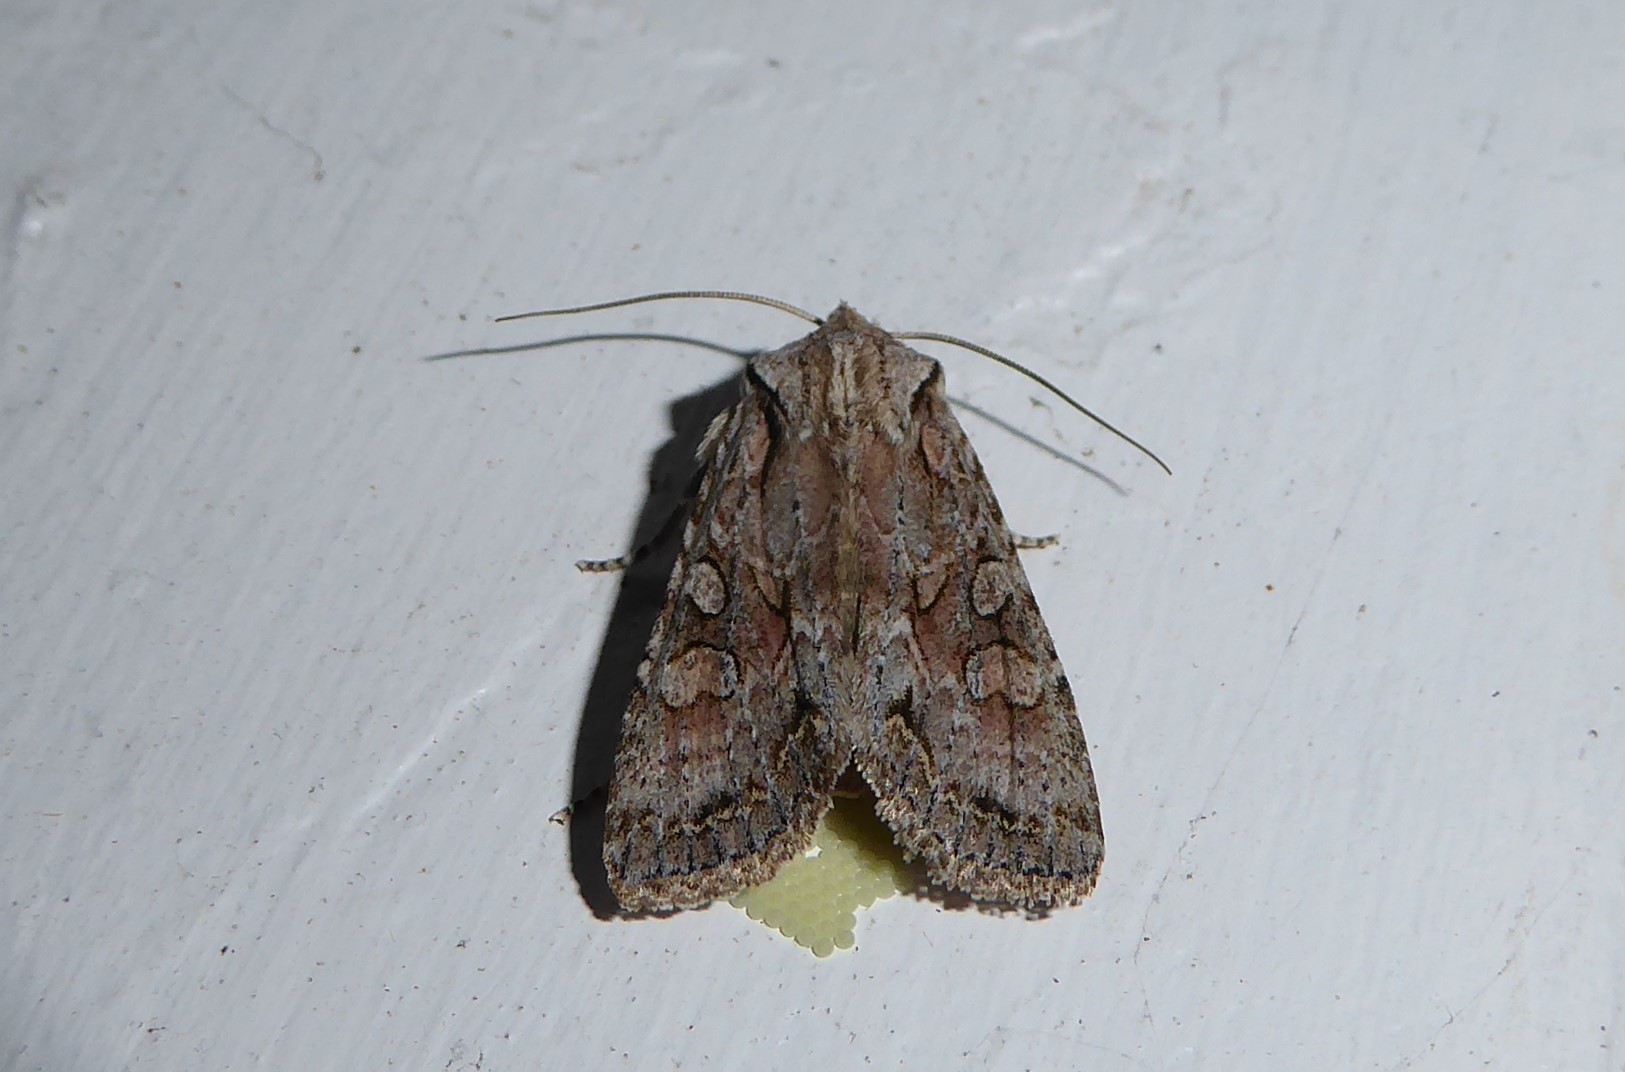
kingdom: Animalia
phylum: Arthropoda
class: Insecta
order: Lepidoptera
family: Noctuidae
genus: Ichneutica
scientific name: Ichneutica mutans
